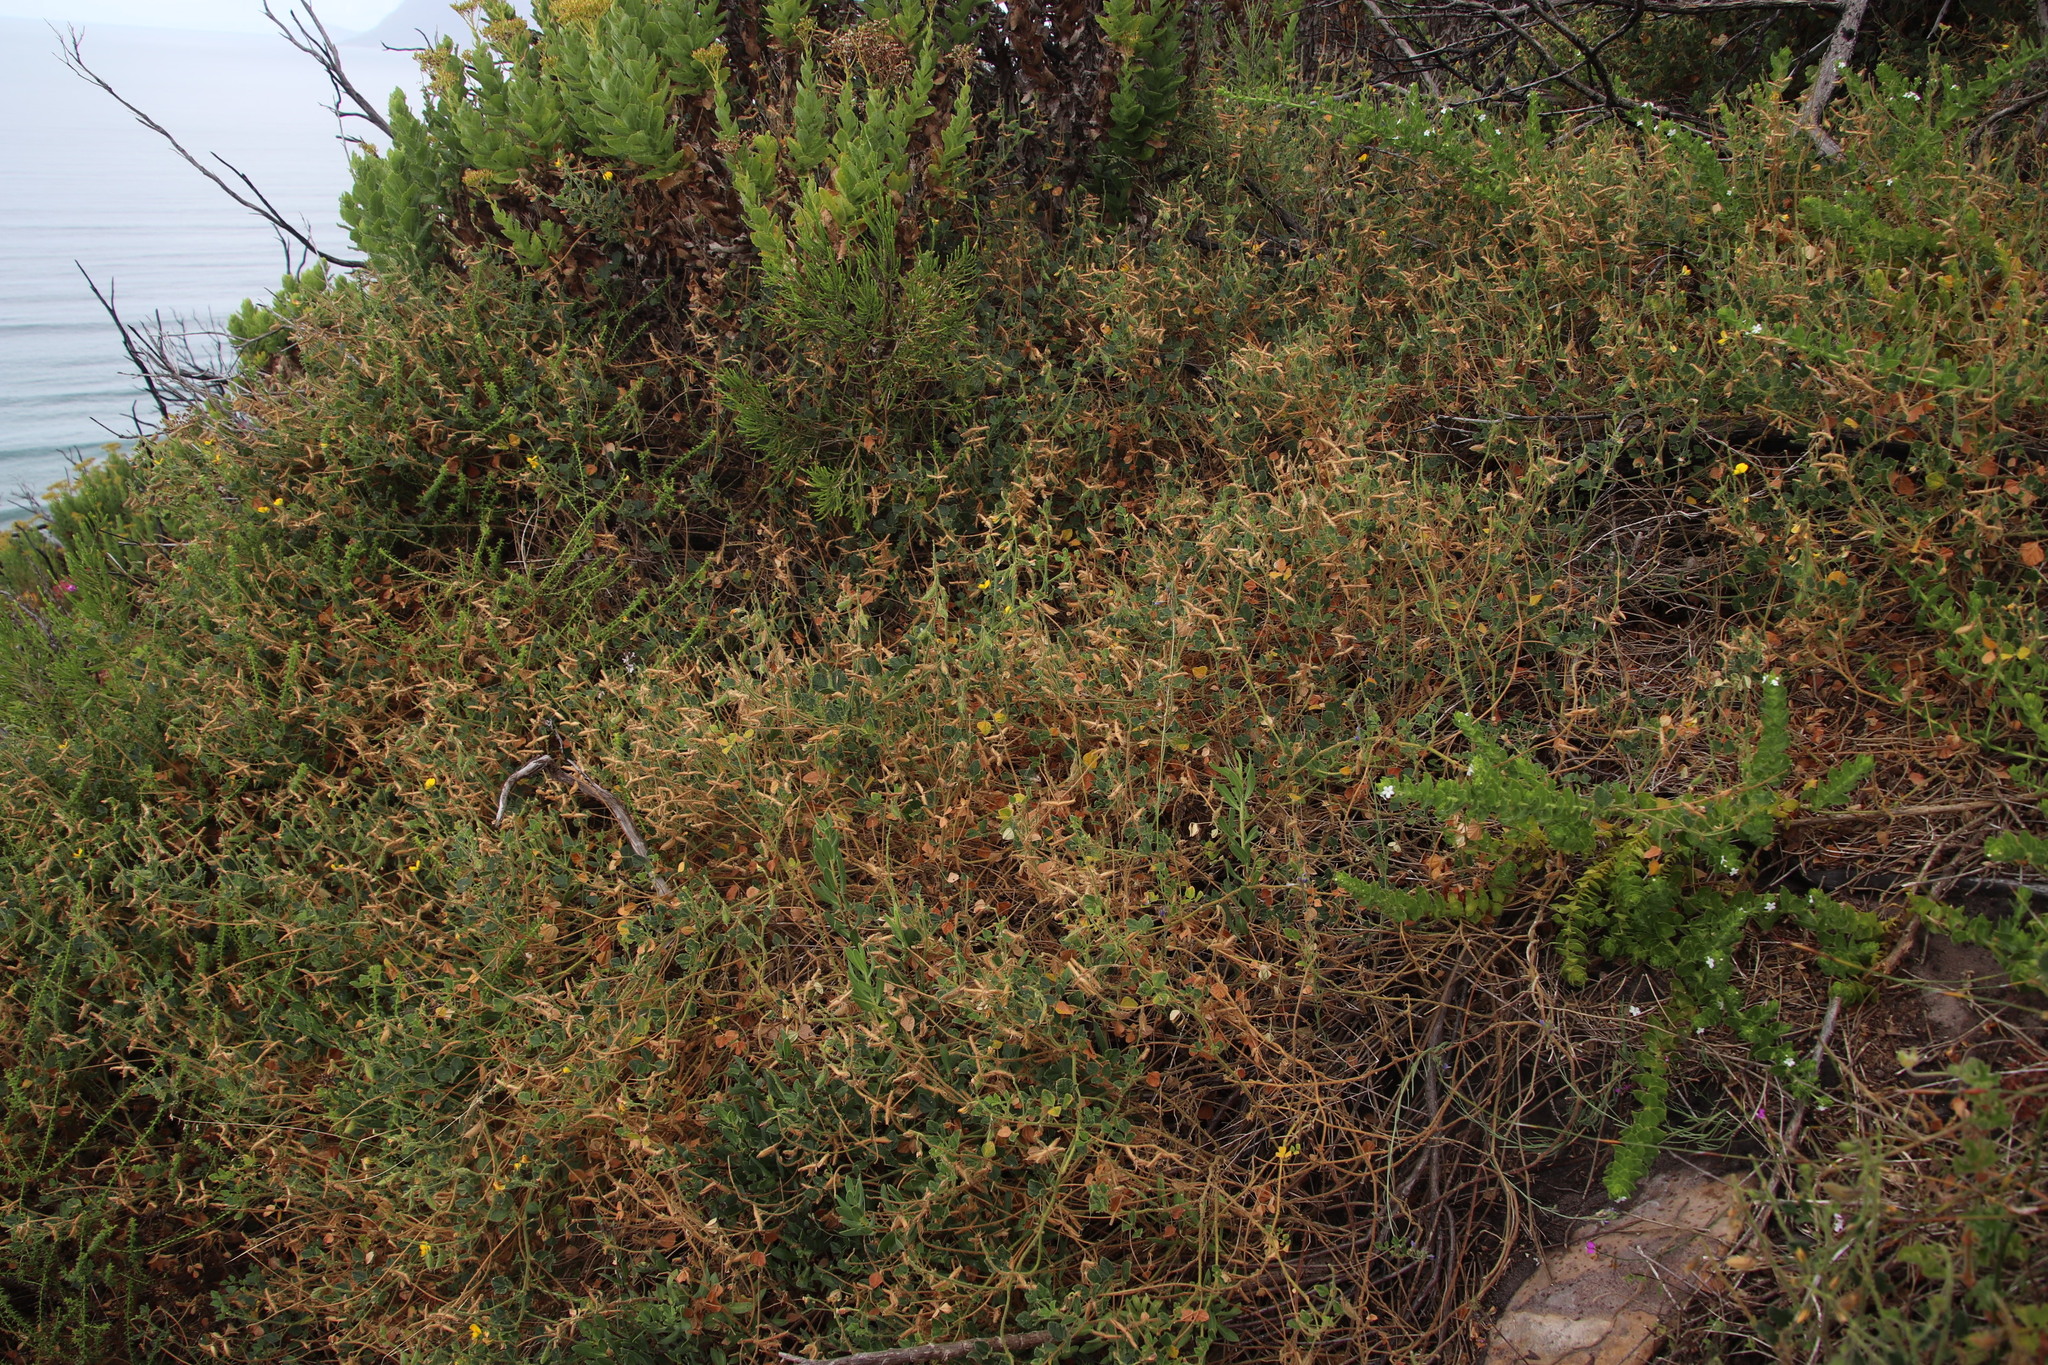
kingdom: Plantae
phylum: Tracheophyta
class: Magnoliopsida
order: Fabales
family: Fabaceae
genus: Bolusafra
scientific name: Bolusafra bituminosa
